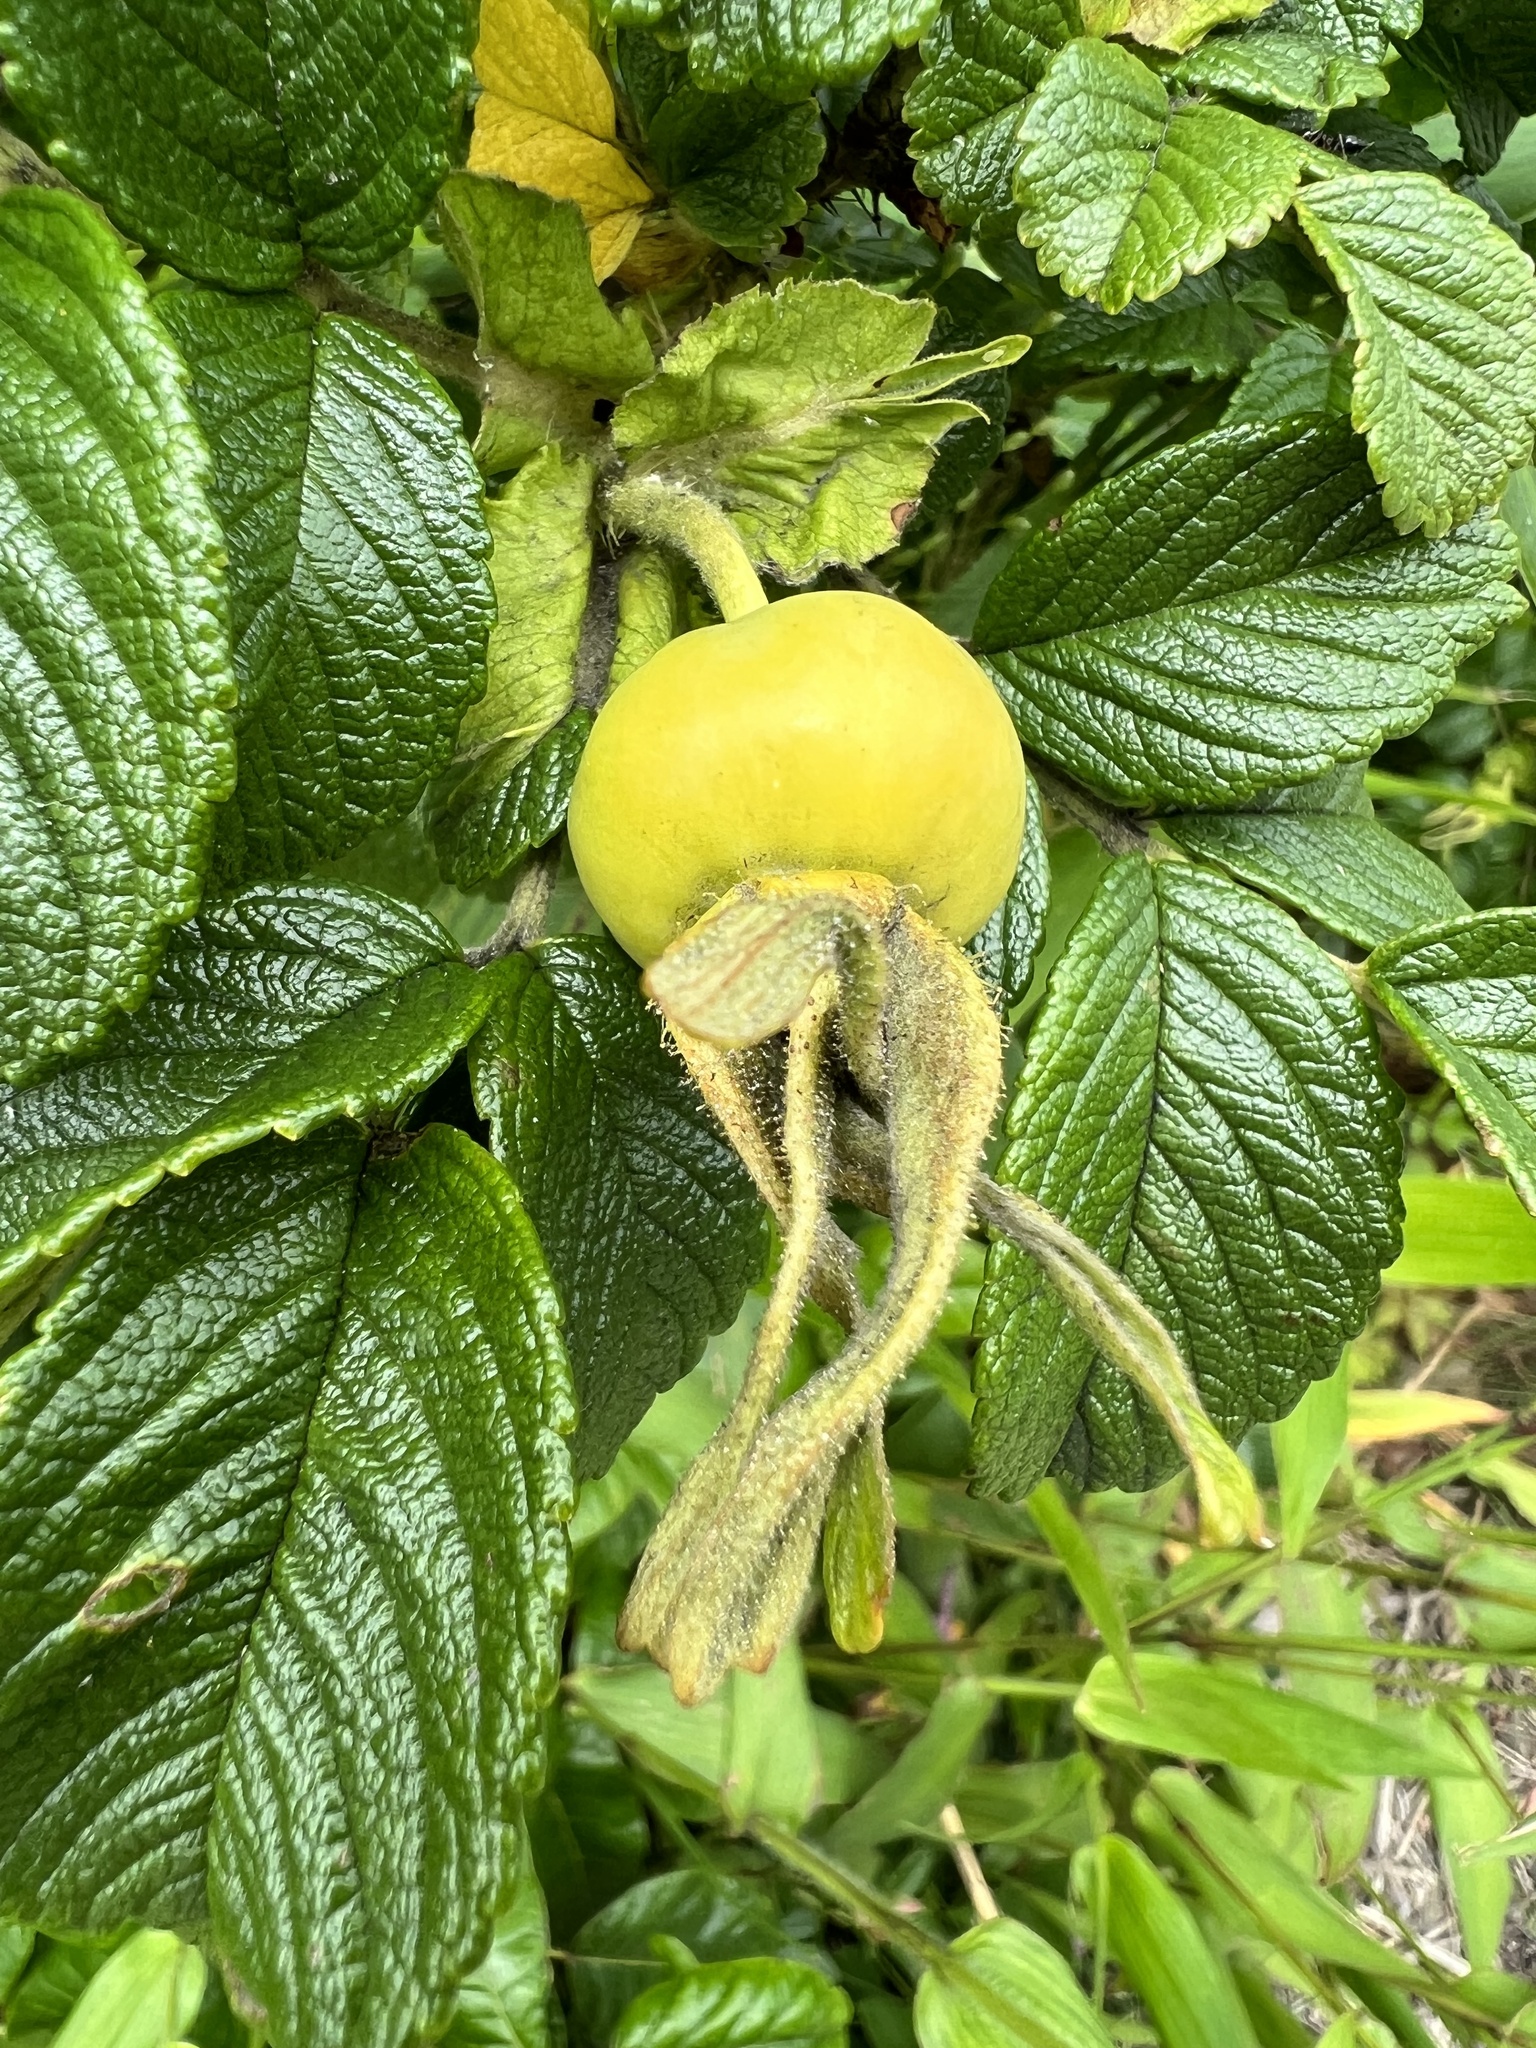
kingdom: Plantae
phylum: Tracheophyta
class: Magnoliopsida
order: Rosales
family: Rosaceae
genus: Rosa
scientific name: Rosa rugosa
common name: Japanese rose
